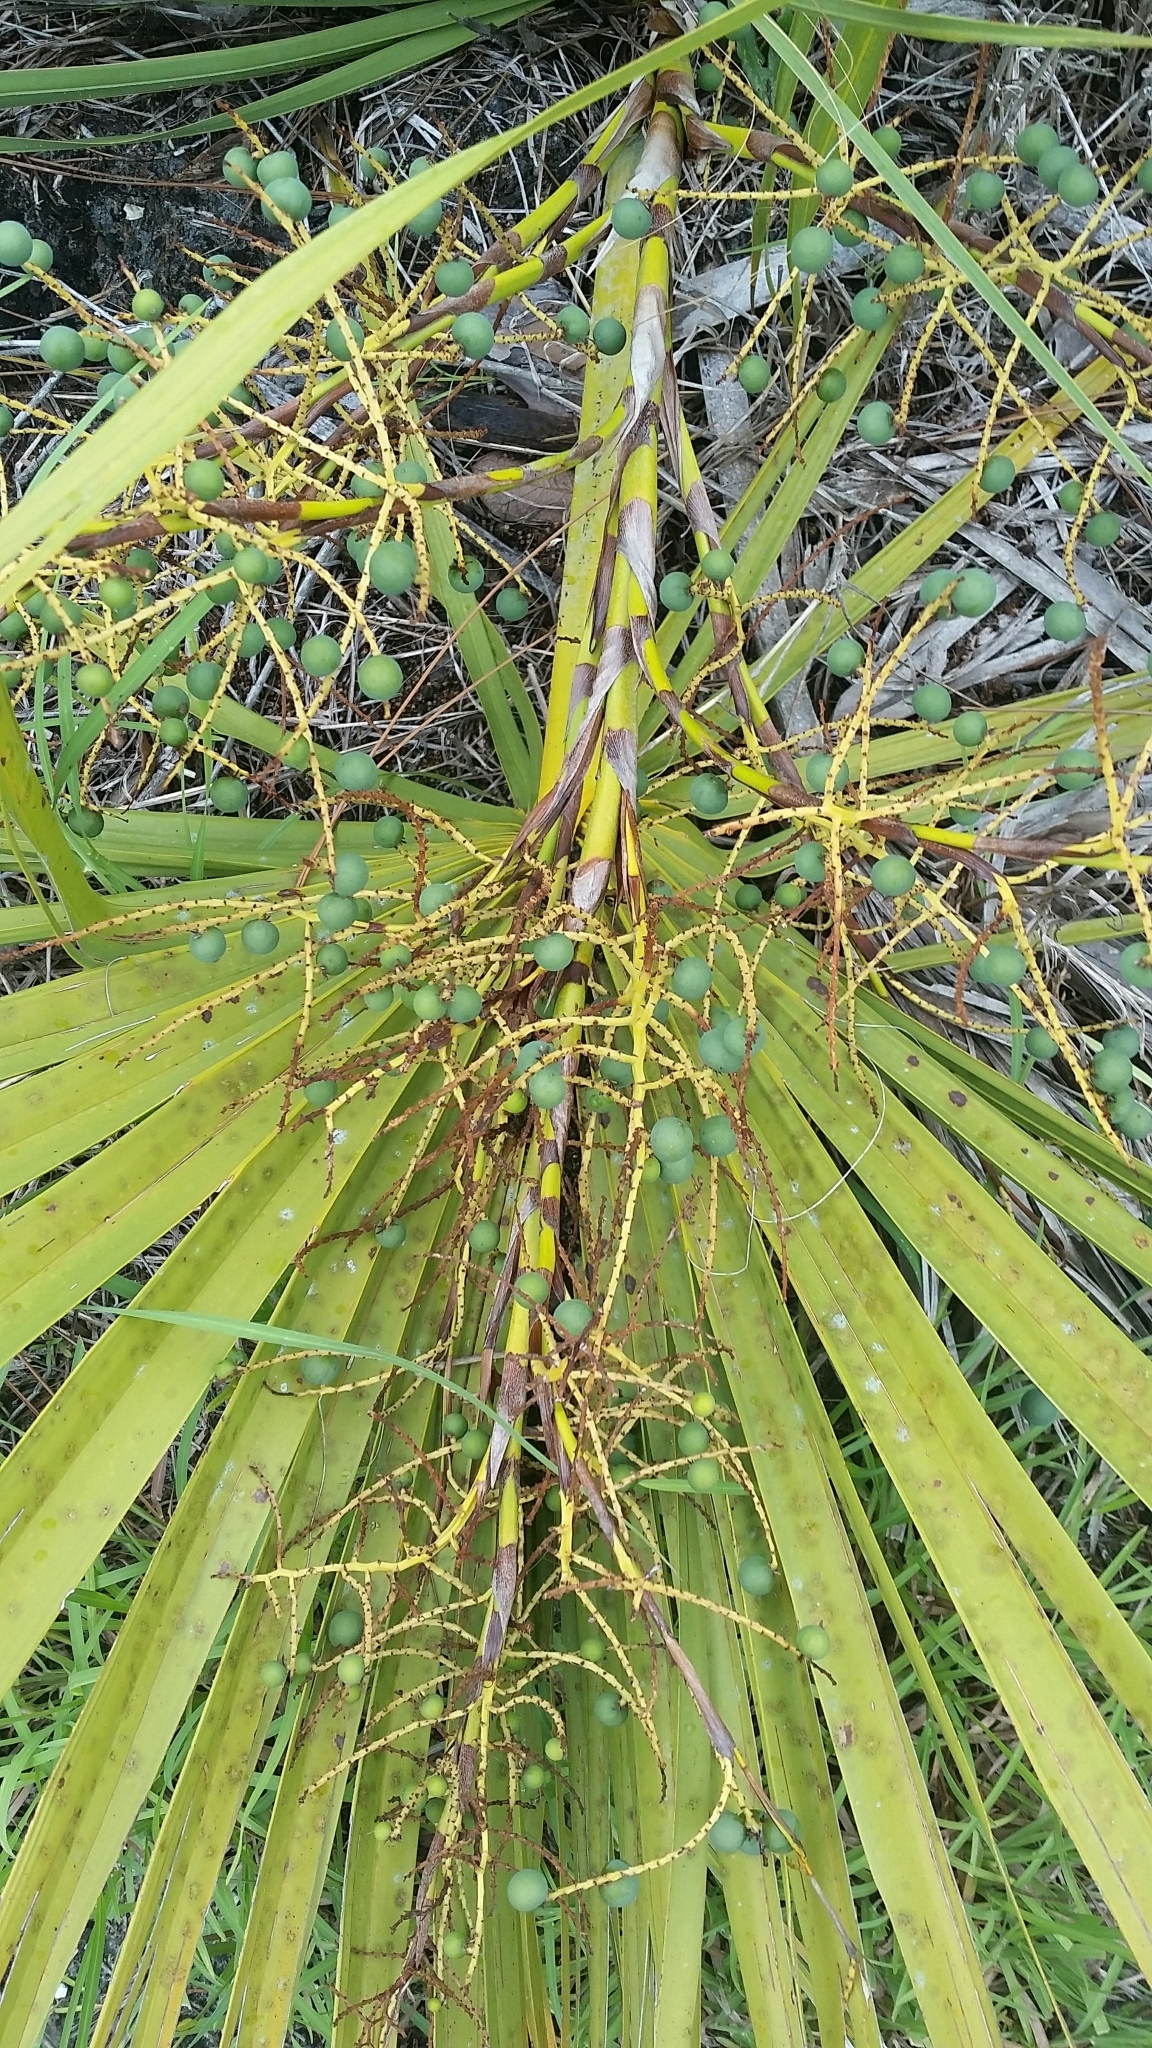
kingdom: Plantae
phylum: Tracheophyta
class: Liliopsida
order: Arecales
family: Arecaceae
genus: Sabal
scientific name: Sabal etonia
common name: Dwarf palmetto
